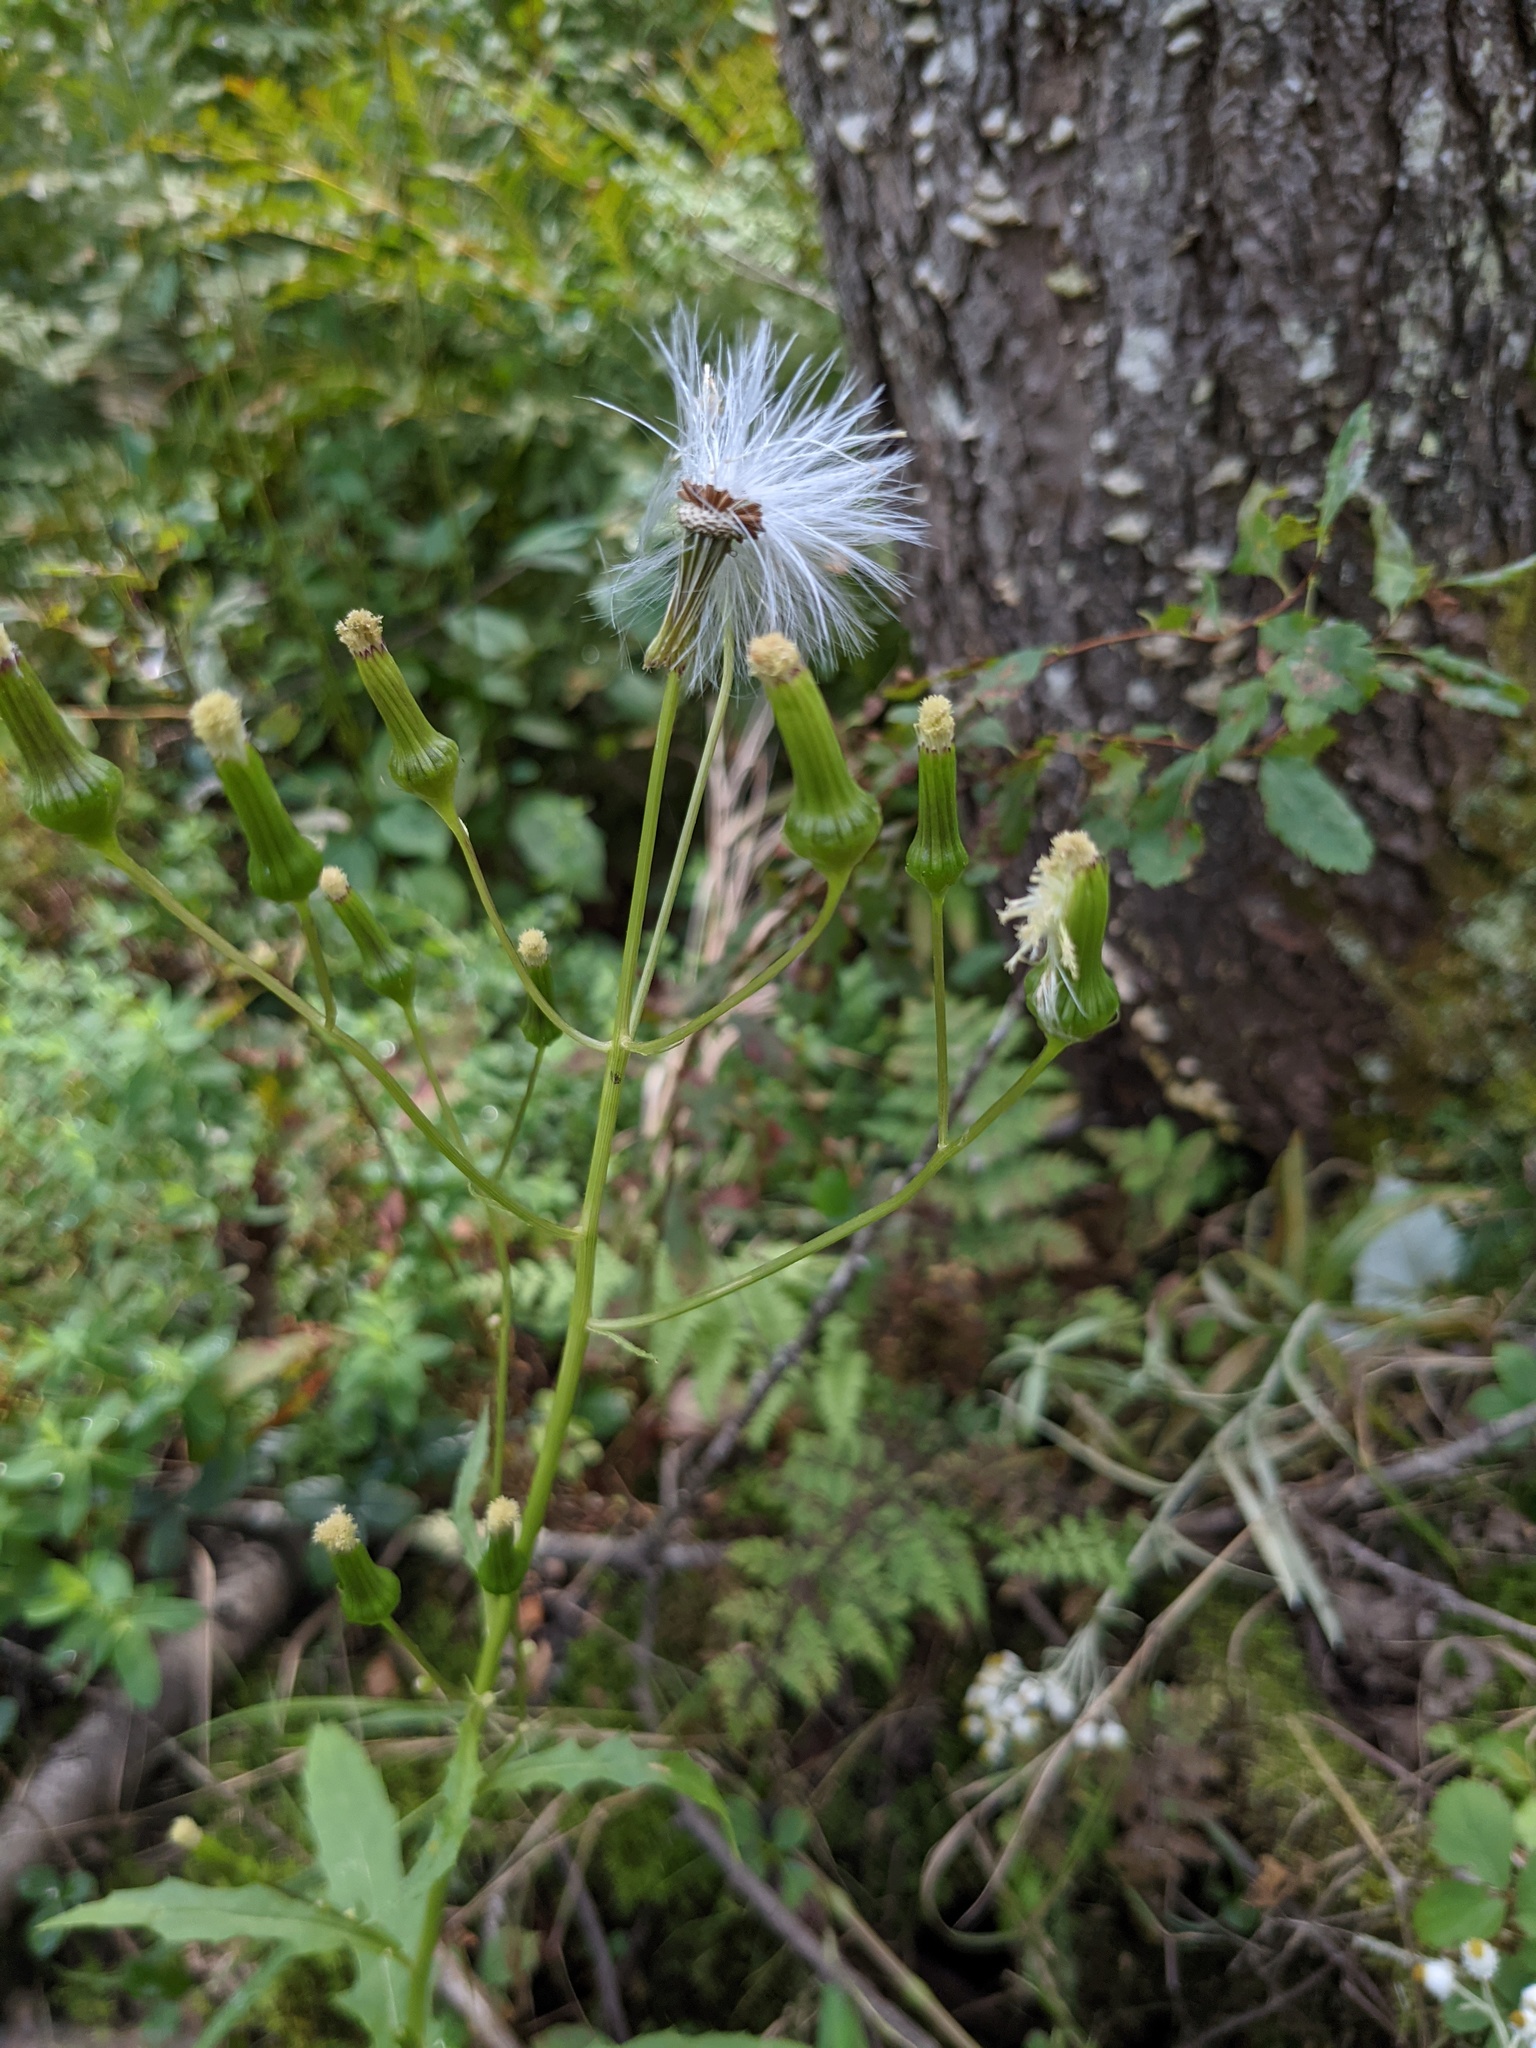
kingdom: Plantae
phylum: Tracheophyta
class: Magnoliopsida
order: Asterales
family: Asteraceae
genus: Erechtites
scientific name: Erechtites hieraciifolius
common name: American burnweed
